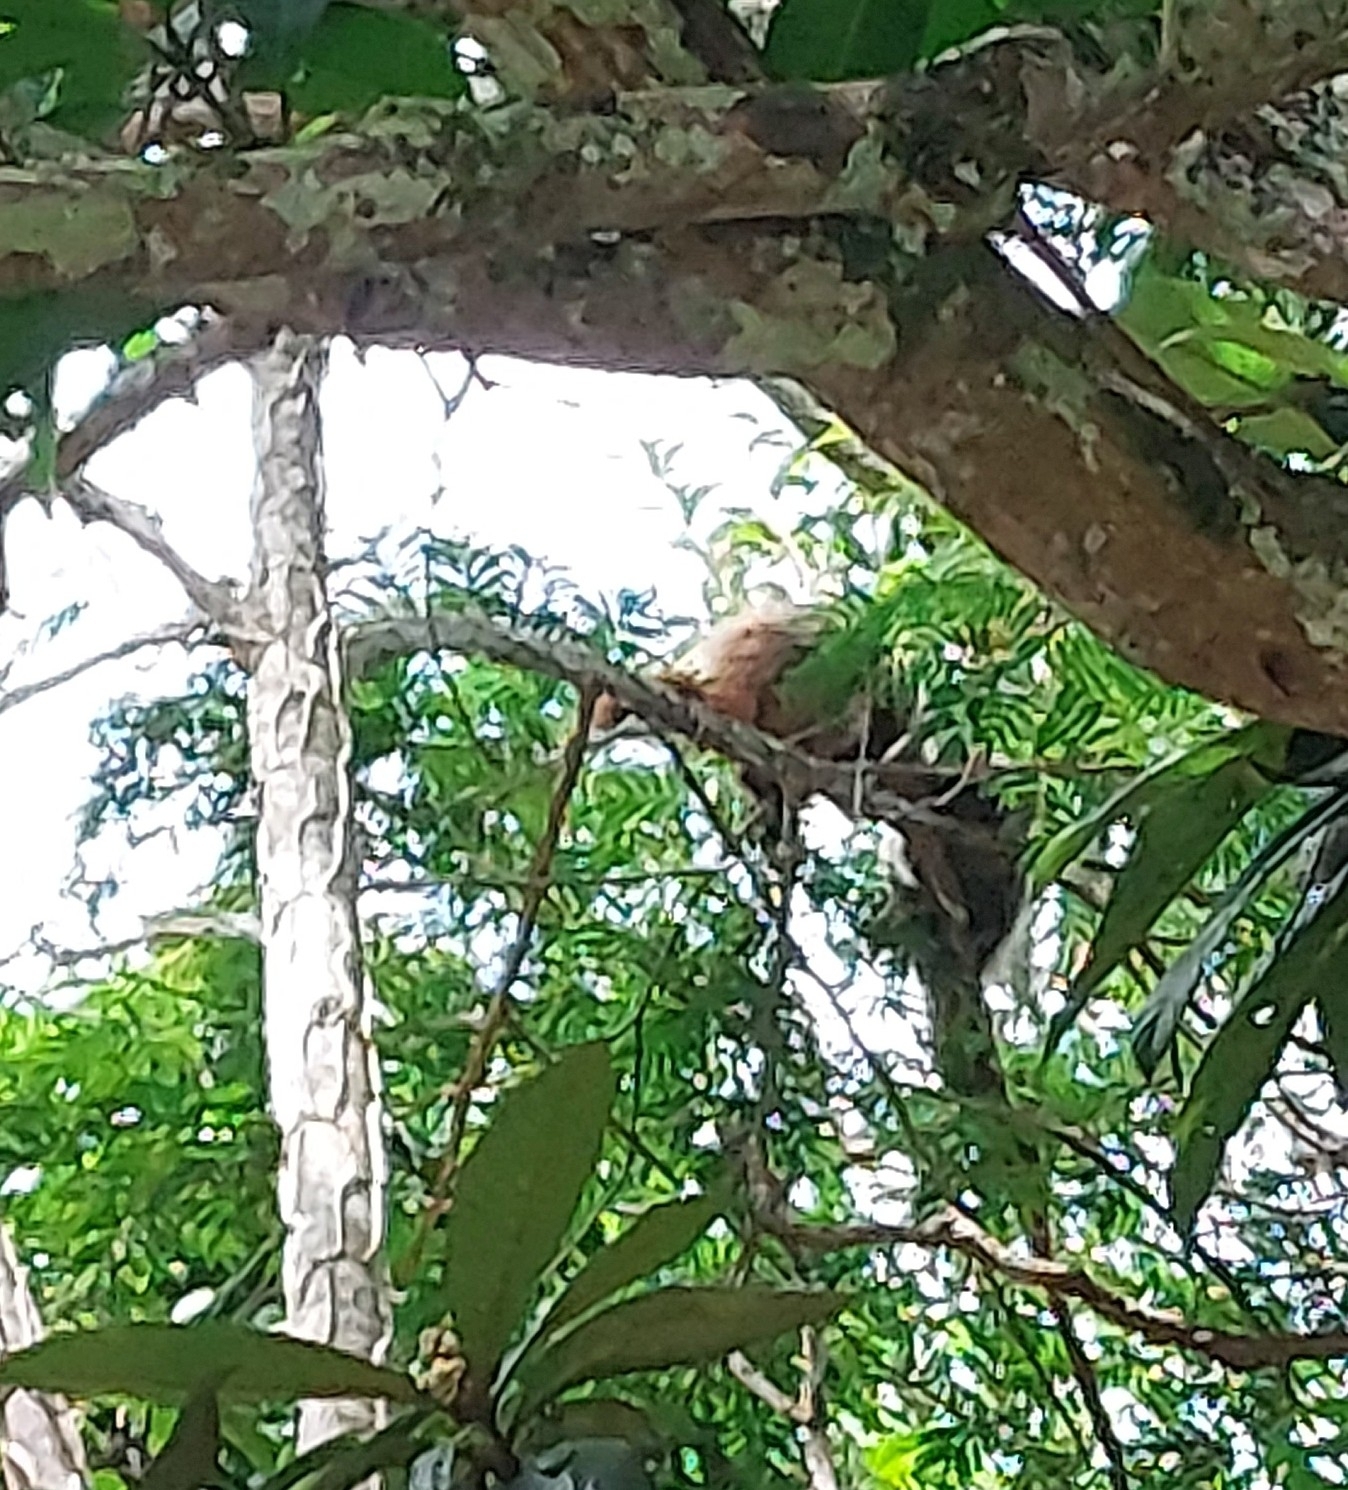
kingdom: Animalia
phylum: Chordata
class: Mammalia
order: Primates
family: Pitheciidae
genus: Callicebus
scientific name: Callicebus nigrifrons
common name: Black-fronted titi
